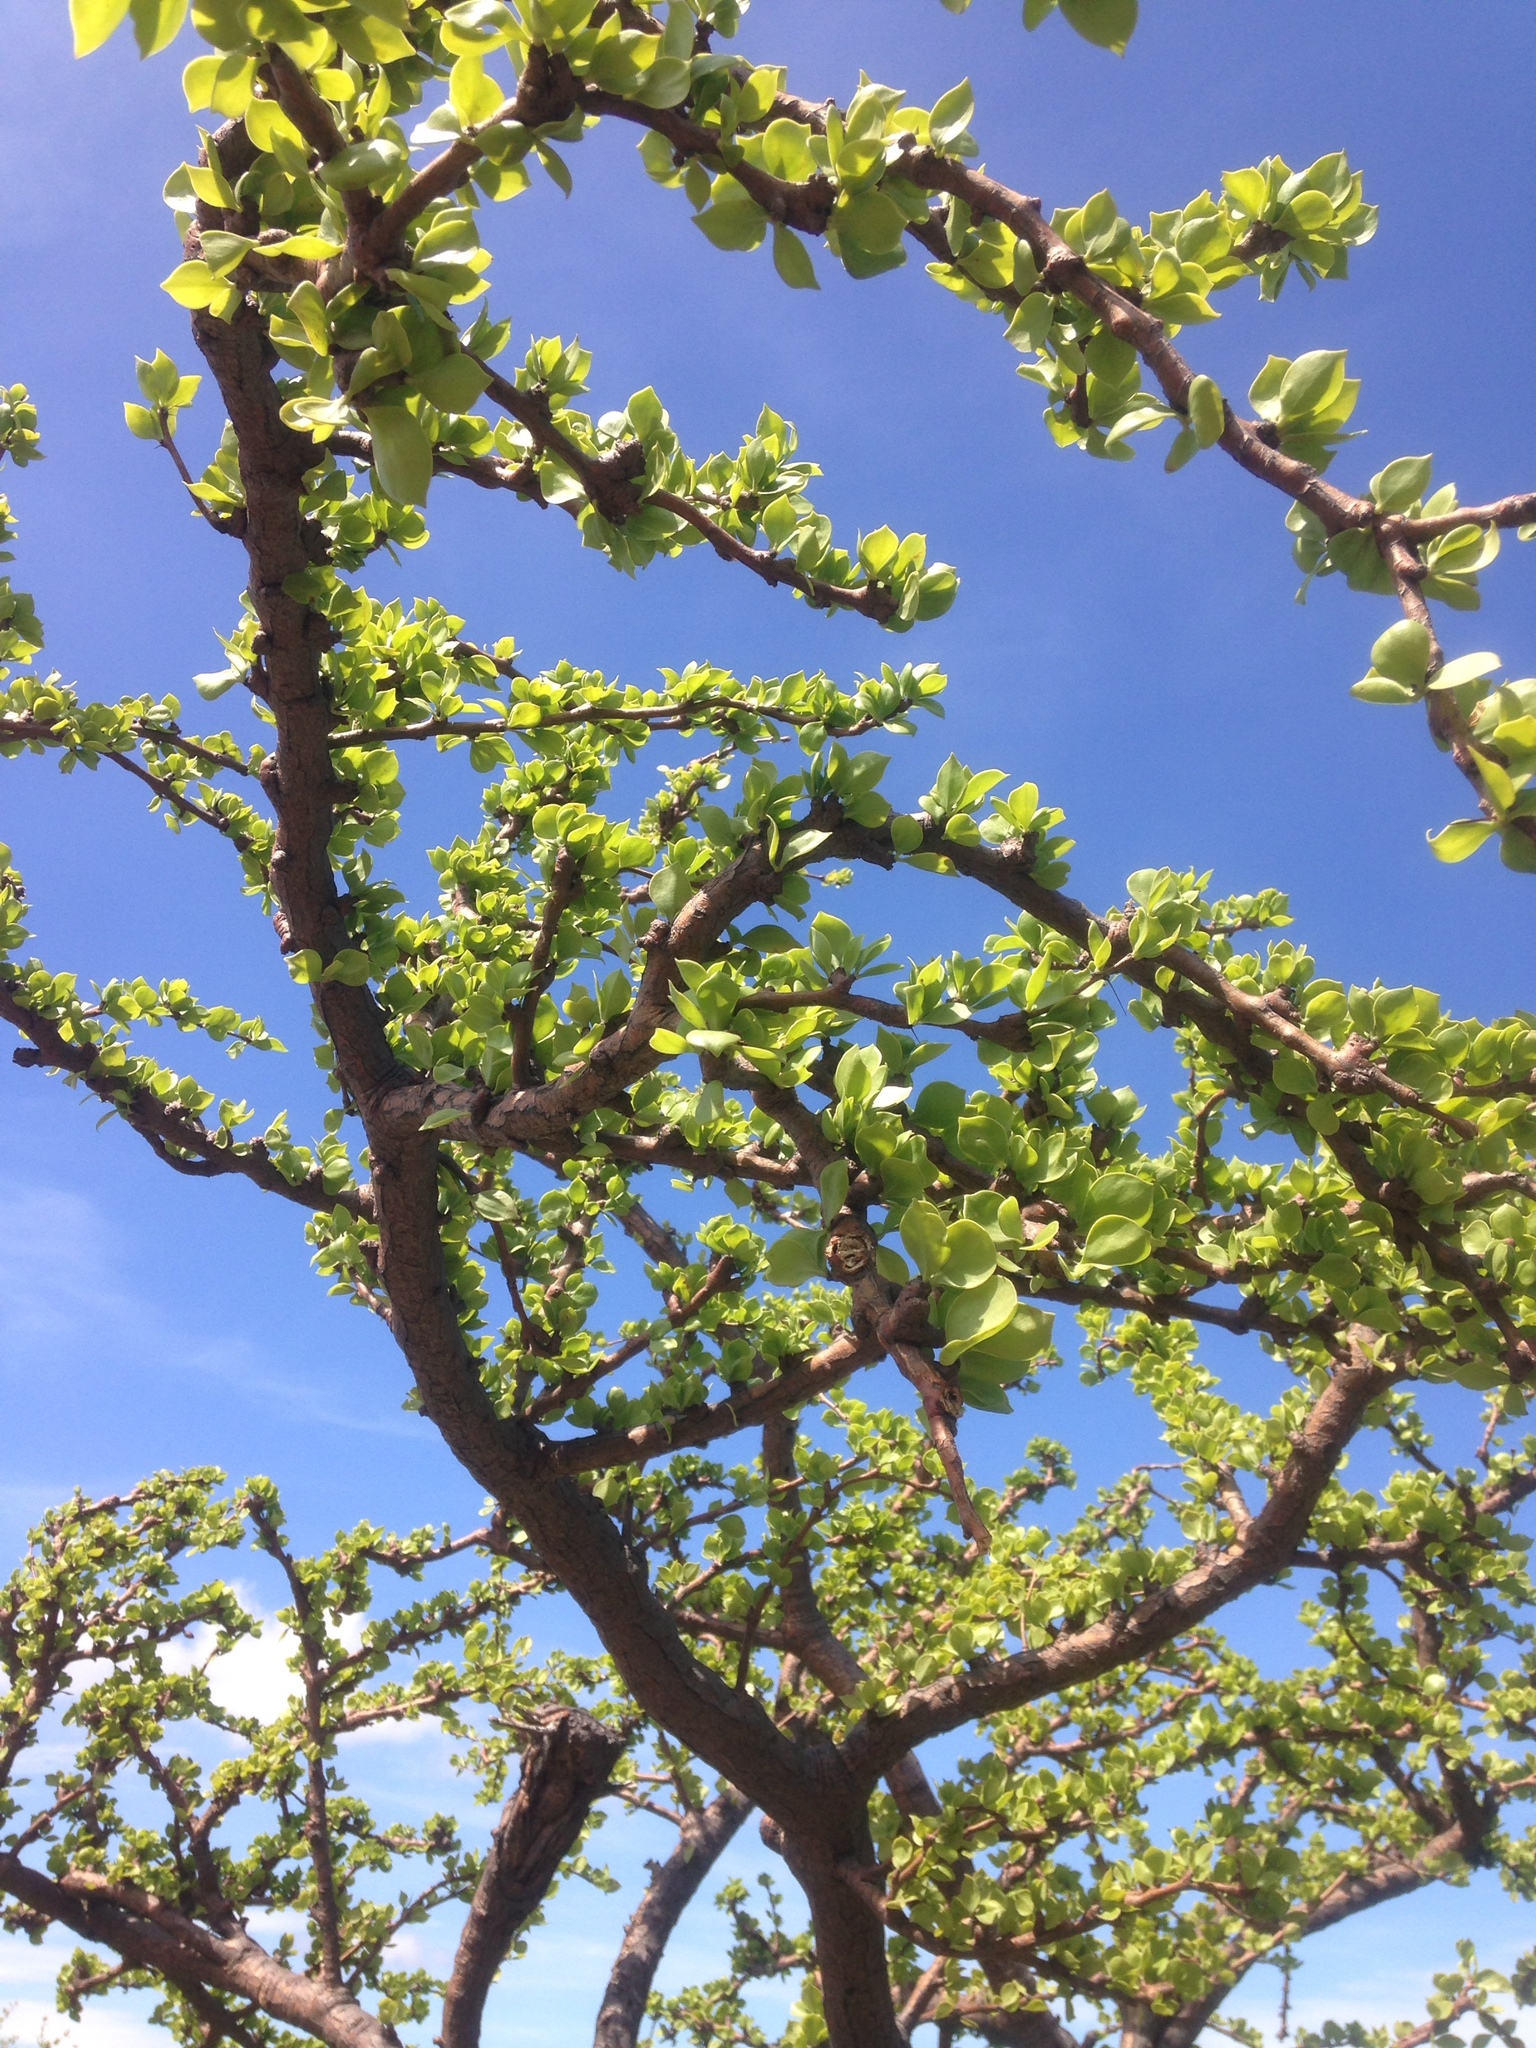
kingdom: Plantae
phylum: Tracheophyta
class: Magnoliopsida
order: Caryophyllales
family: Cactaceae
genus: Leuenbergeria
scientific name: Leuenbergeria guamacho
